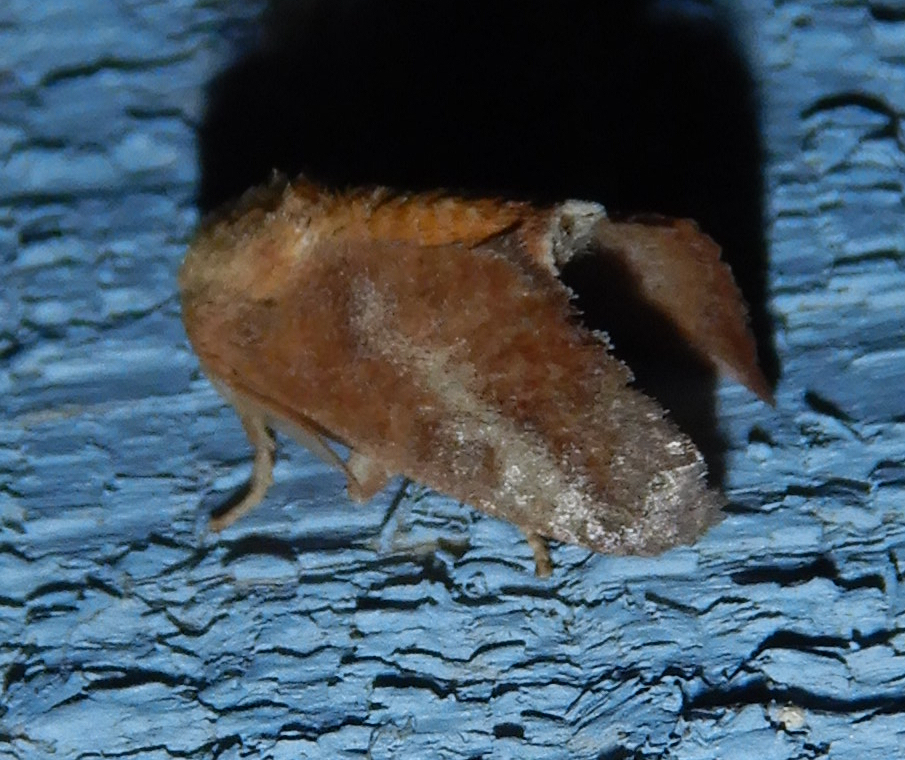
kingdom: Animalia
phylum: Arthropoda
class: Insecta
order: Lepidoptera
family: Limacodidae
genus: Isa
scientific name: Isa textula
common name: Crowned slug moth
